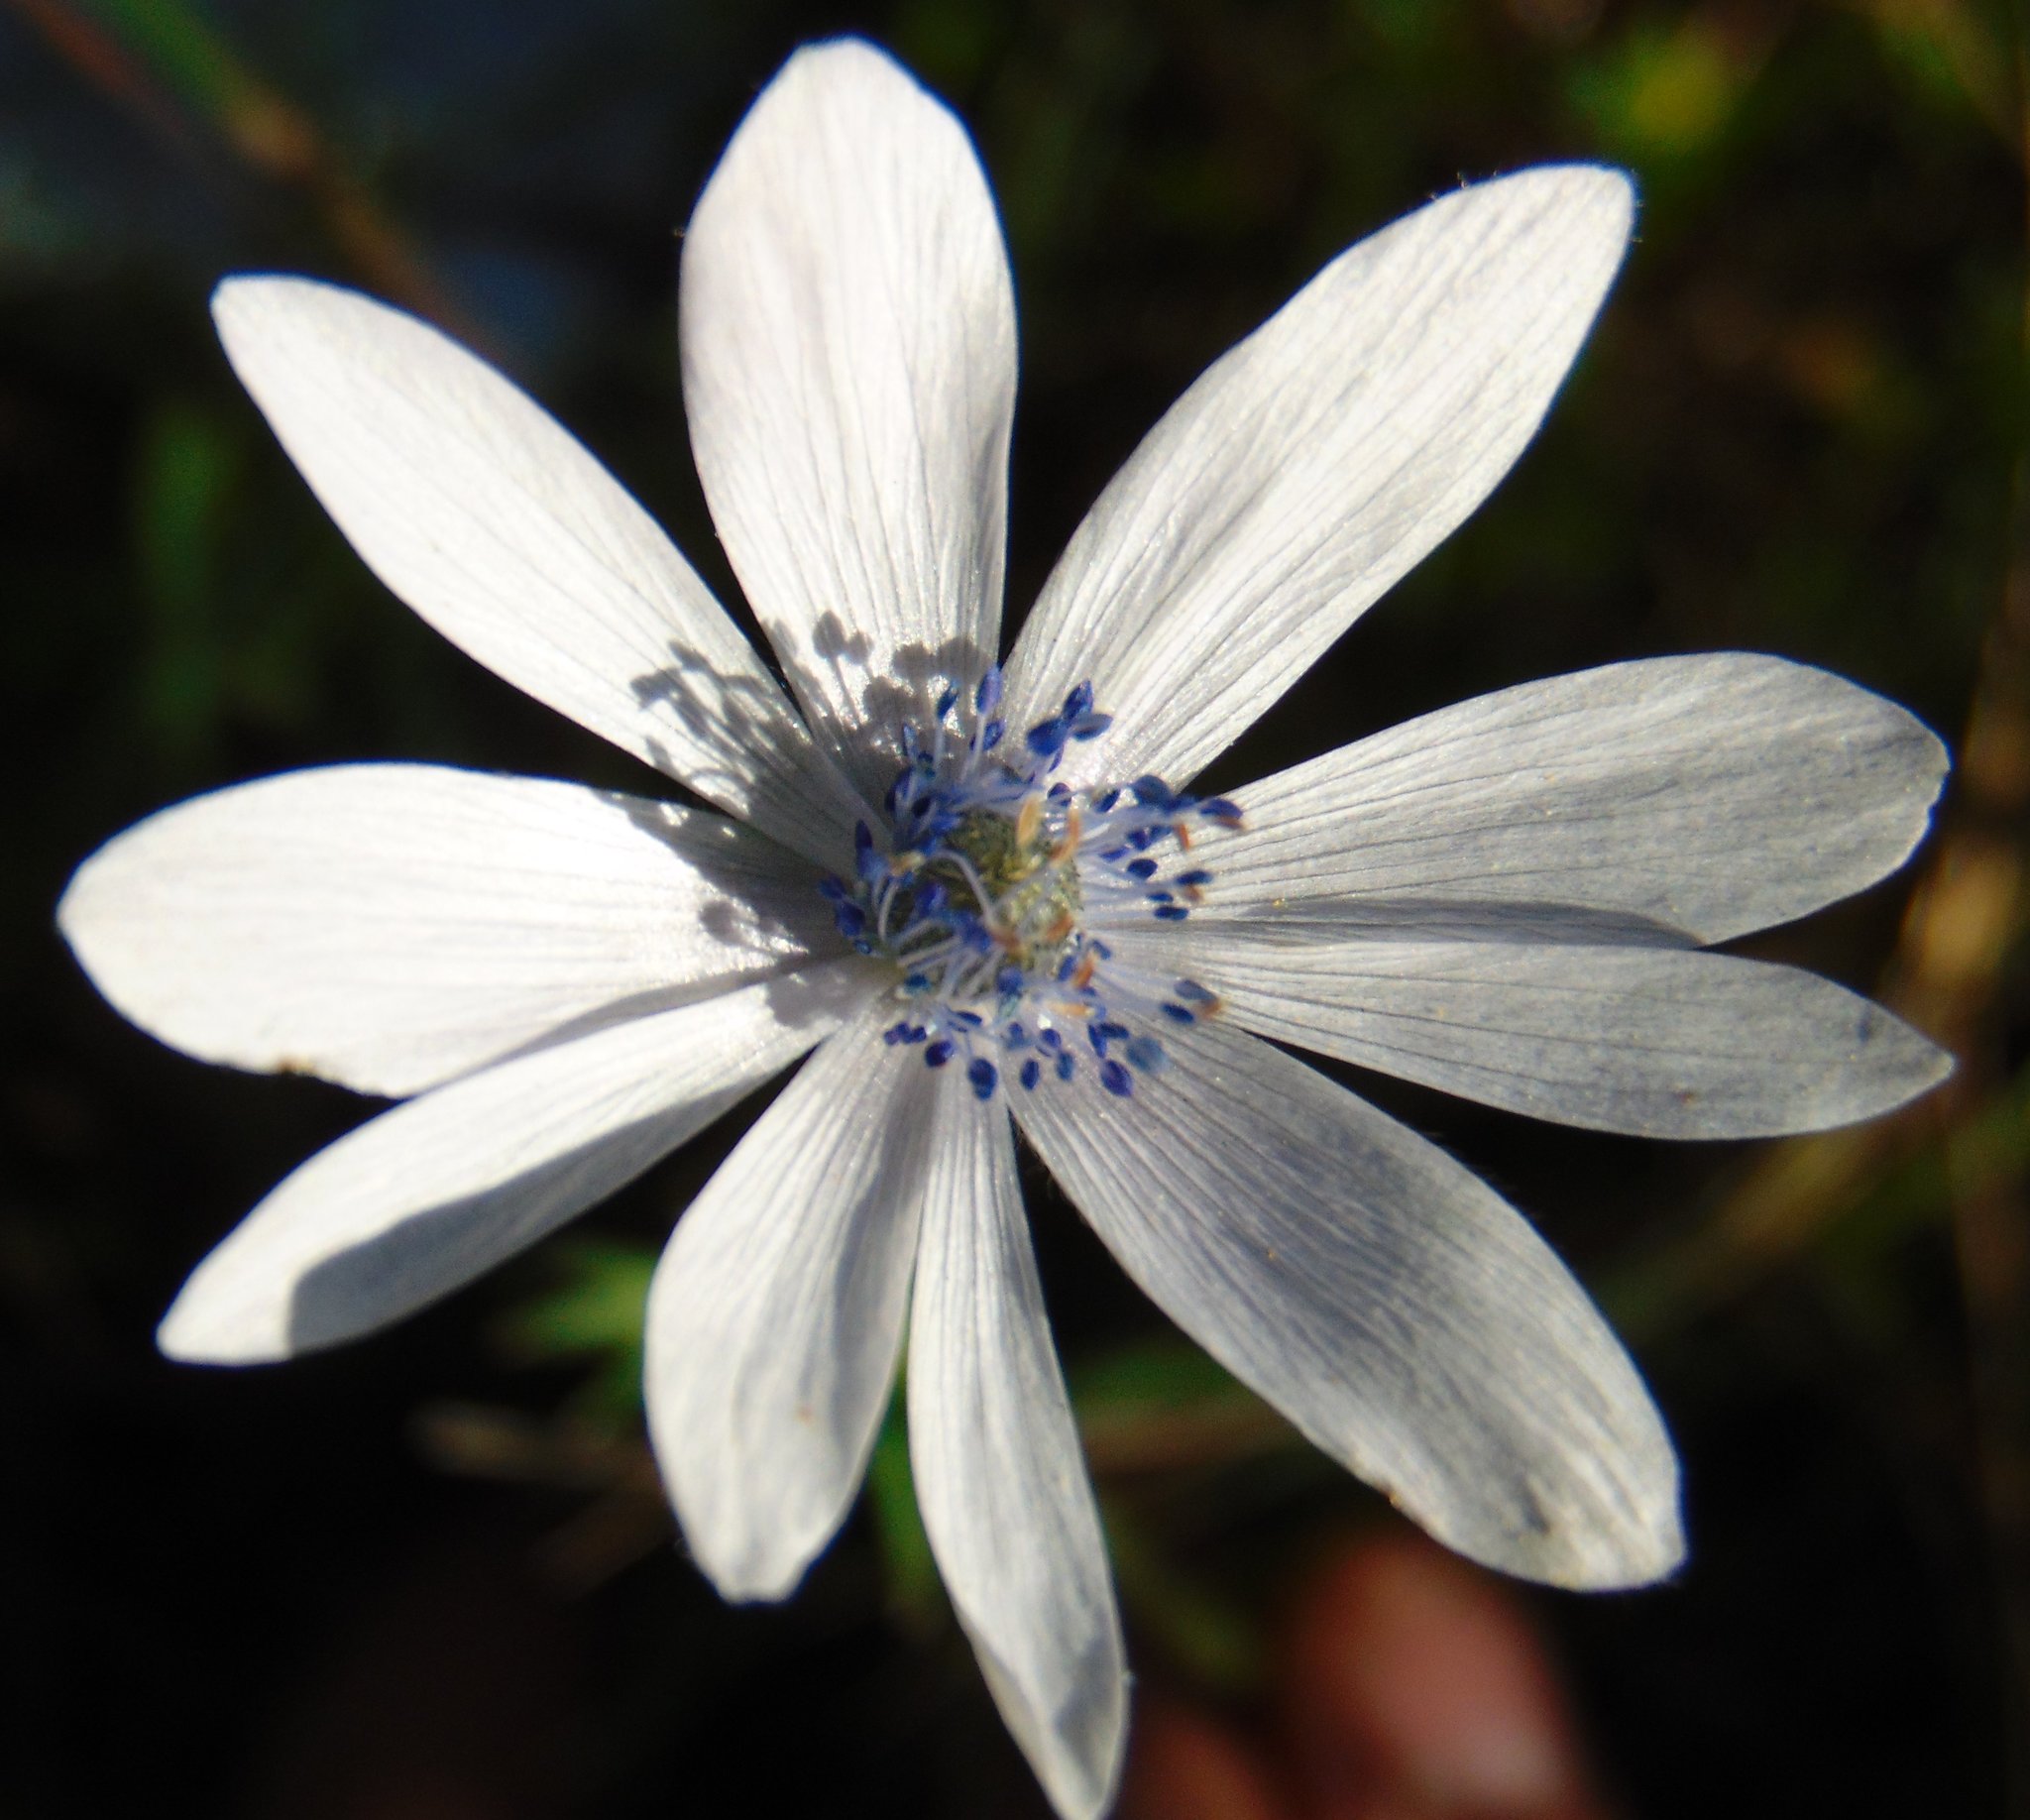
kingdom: Plantae
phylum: Tracheophyta
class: Magnoliopsida
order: Ranunculales
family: Ranunculaceae
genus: Anemone
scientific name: Anemone hortensis
